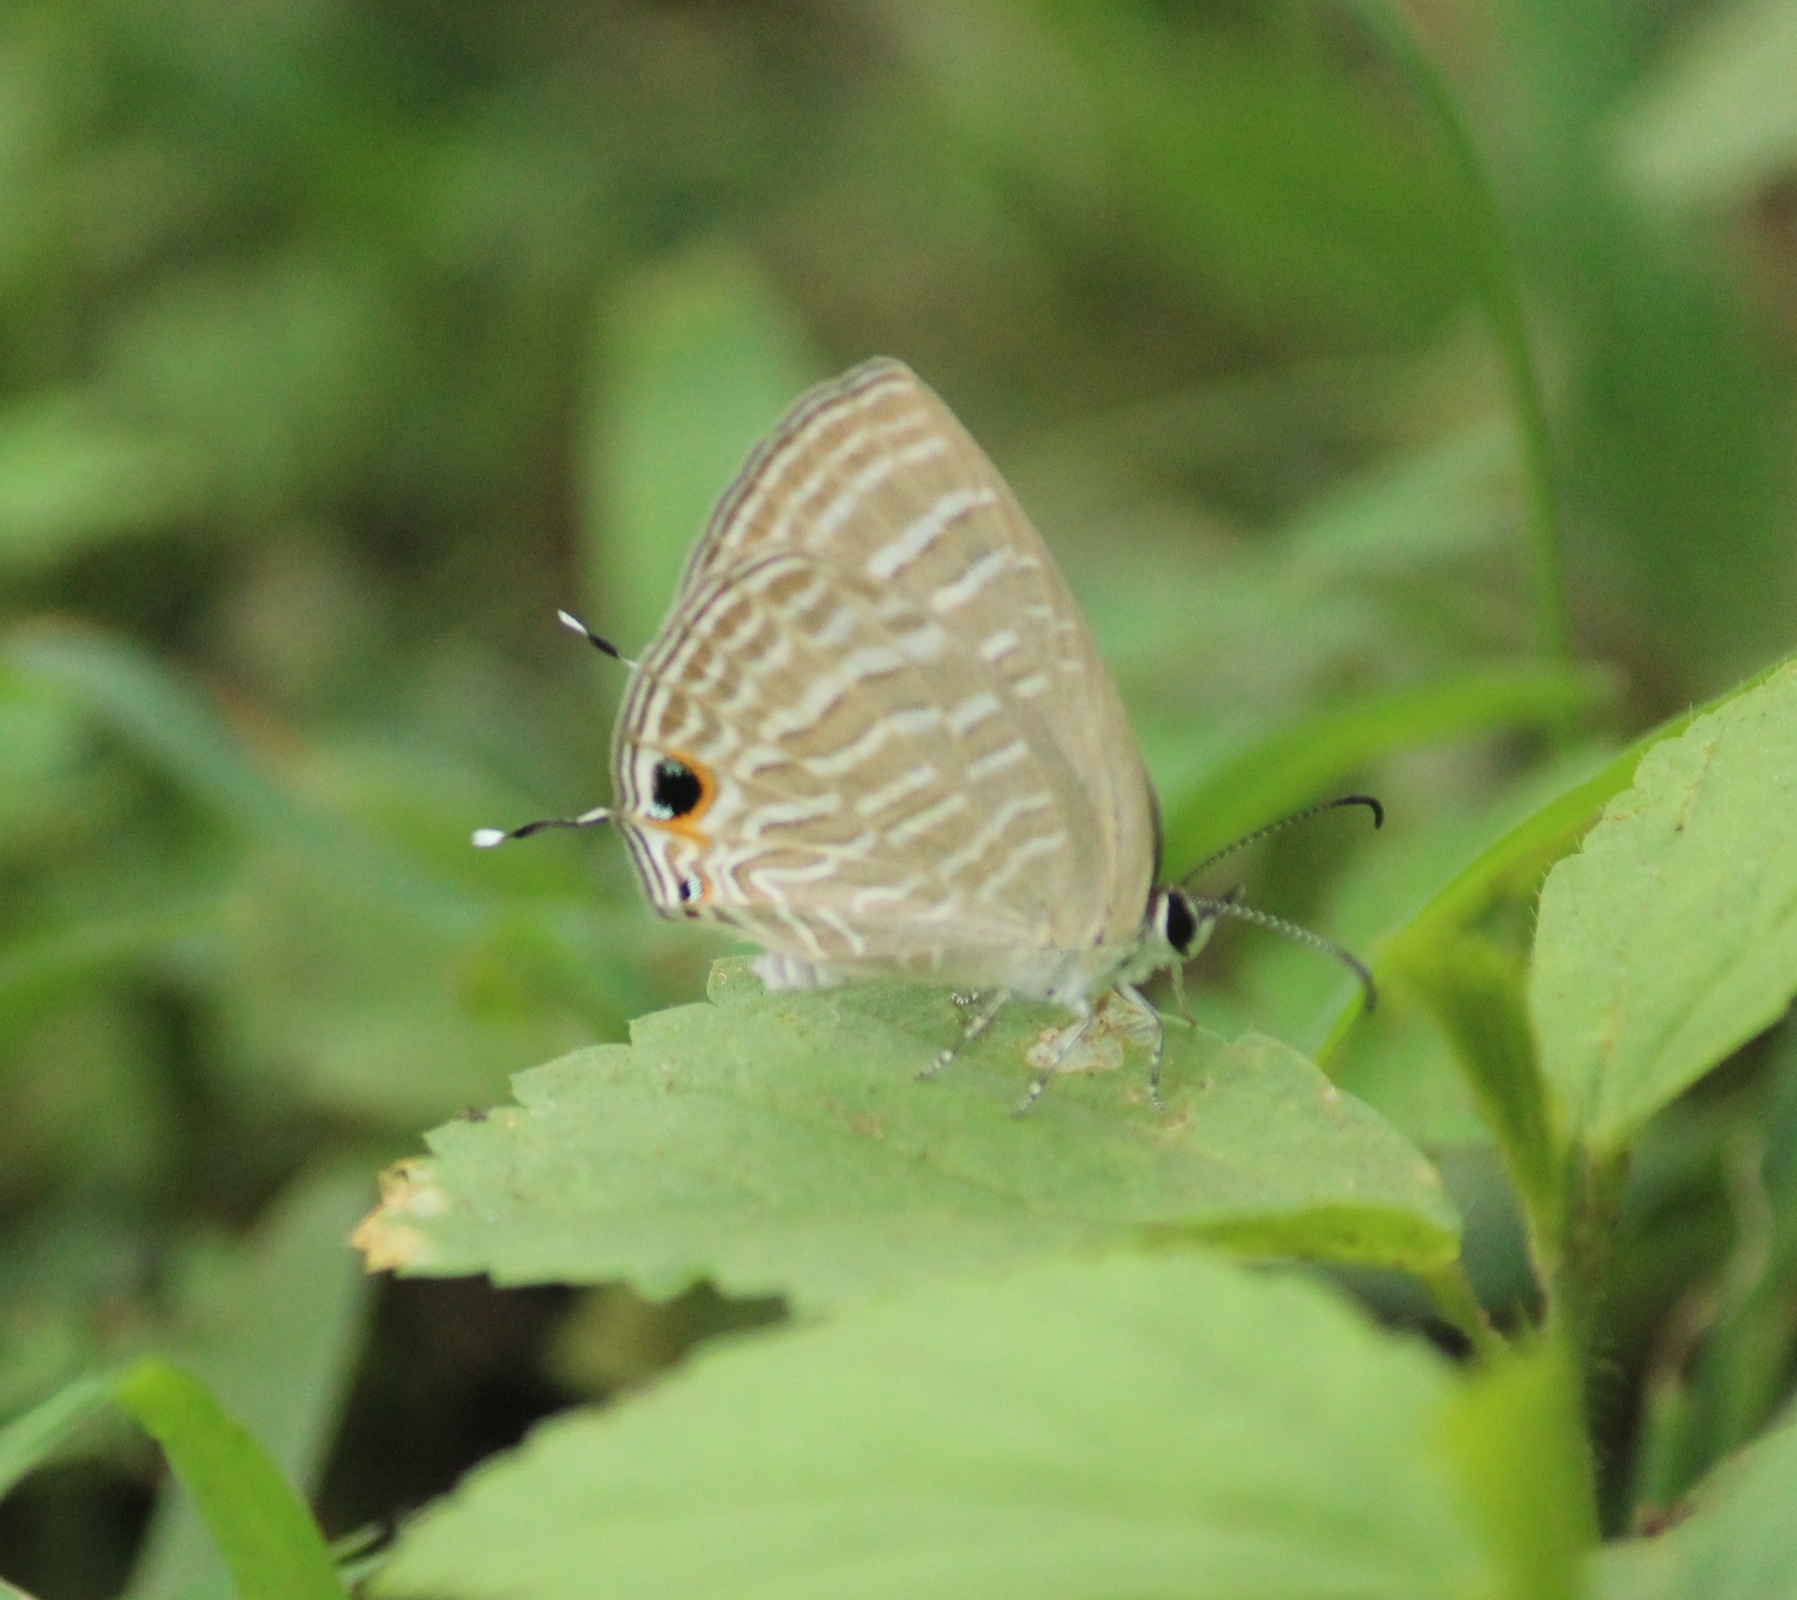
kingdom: Animalia
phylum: Arthropoda
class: Insecta
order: Lepidoptera
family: Lycaenidae
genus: Jamides
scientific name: Jamides celeno
